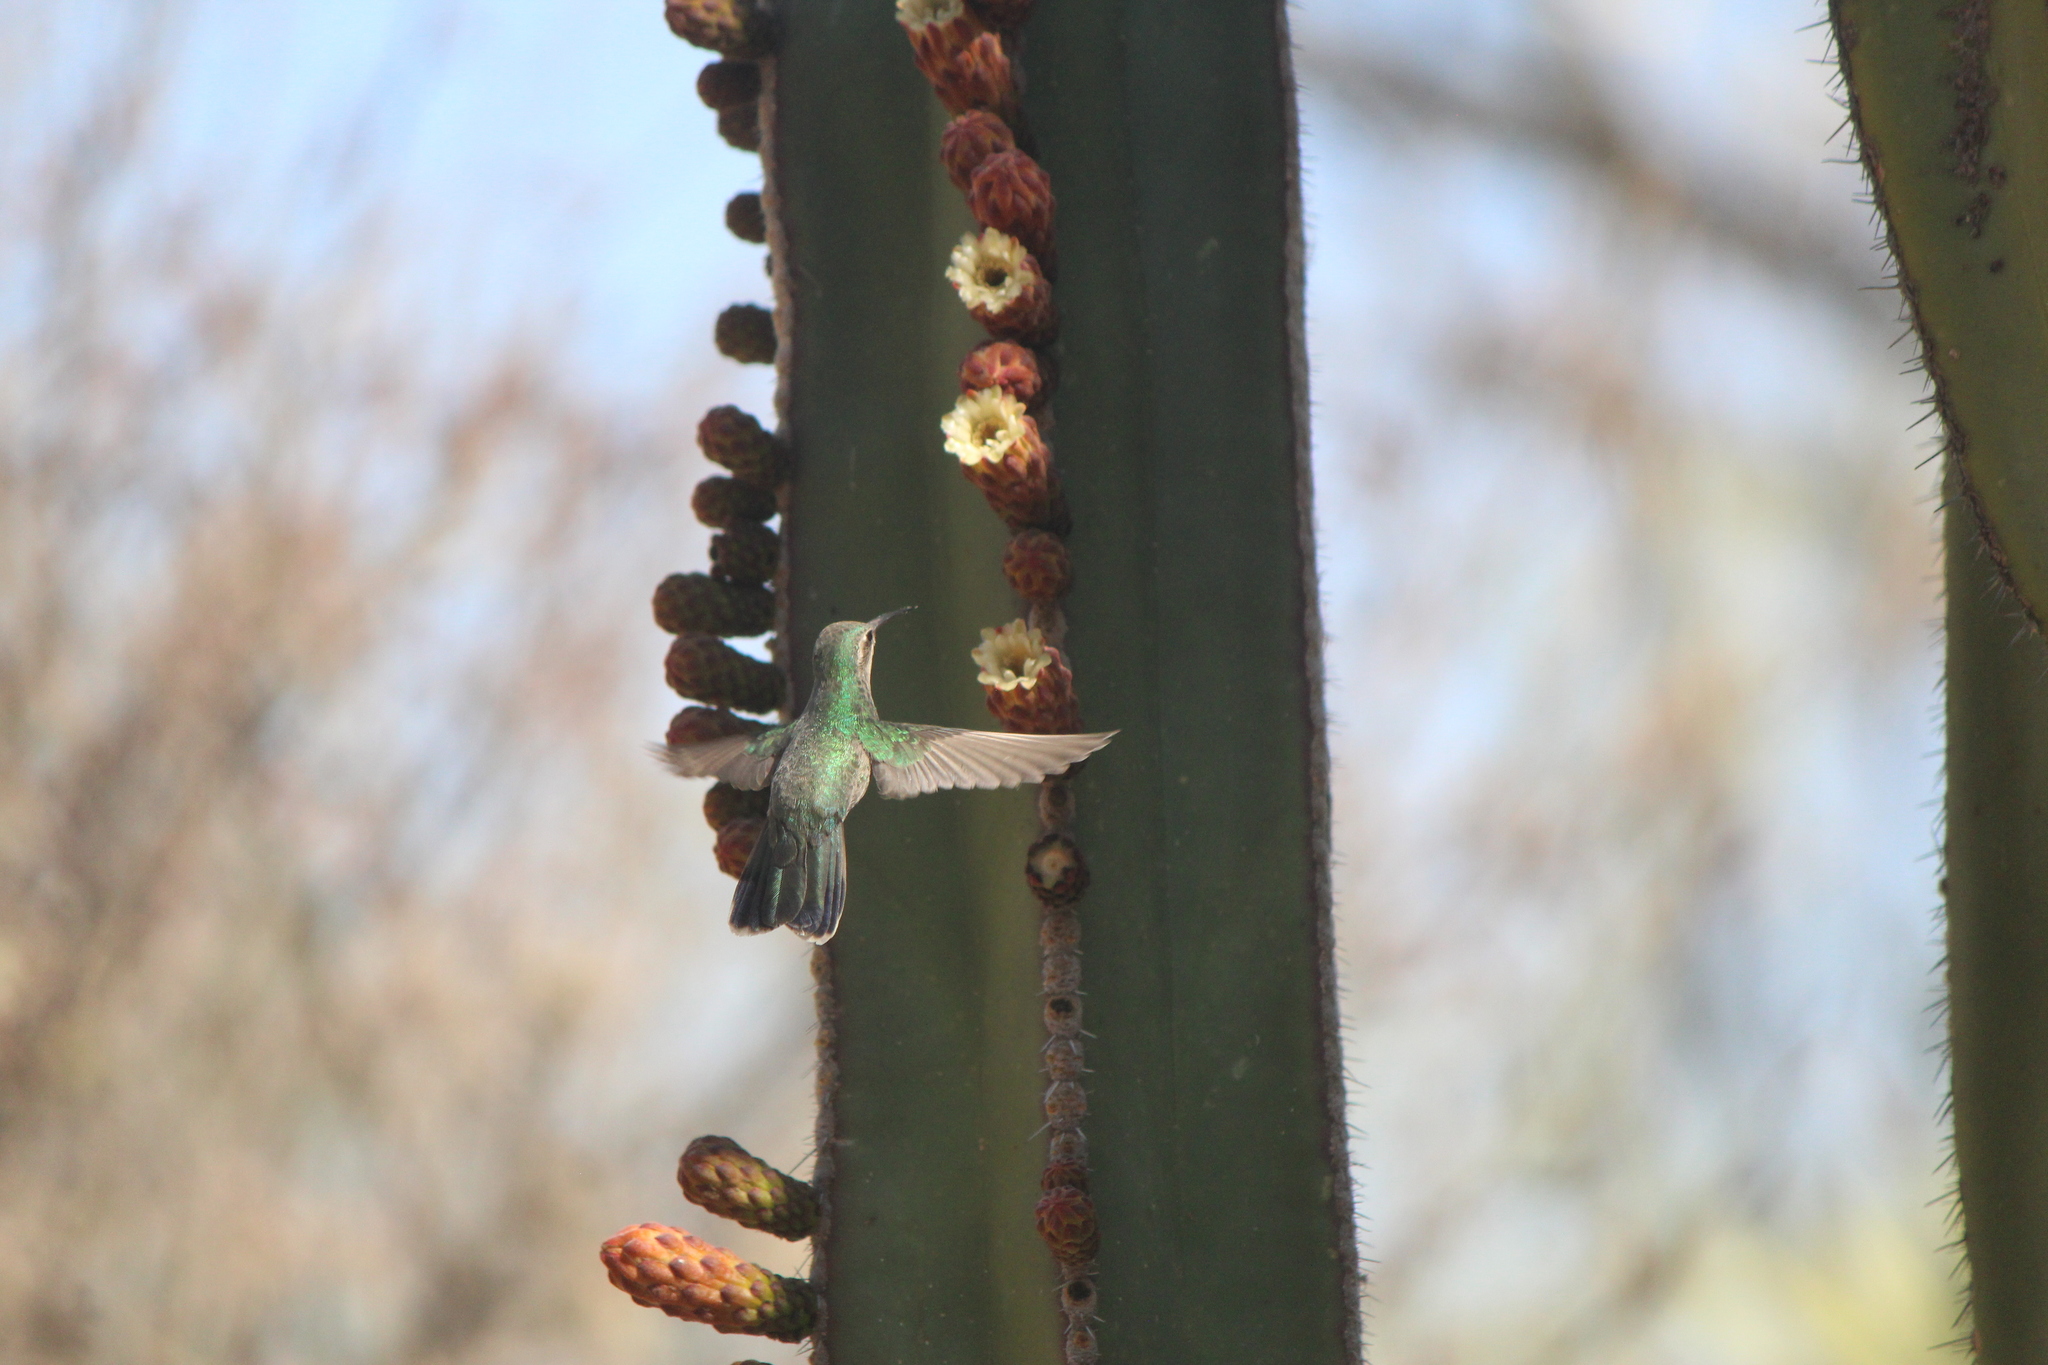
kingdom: Animalia
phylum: Chordata
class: Aves
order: Apodiformes
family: Trochilidae
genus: Cynanthus
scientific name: Cynanthus latirostris
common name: Broad-billed hummingbird
